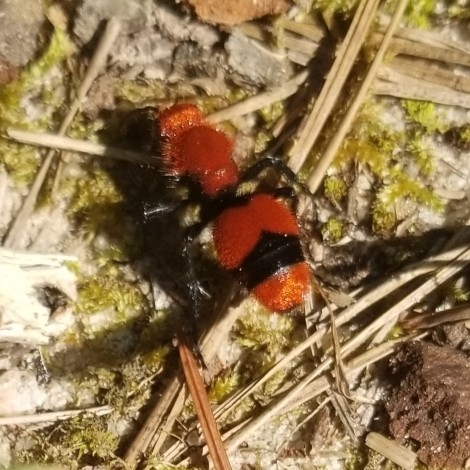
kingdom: Animalia
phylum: Arthropoda
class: Insecta
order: Hymenoptera
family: Mutillidae
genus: Dasymutilla
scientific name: Dasymutilla occidentalis
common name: Common eastern velvet ant
